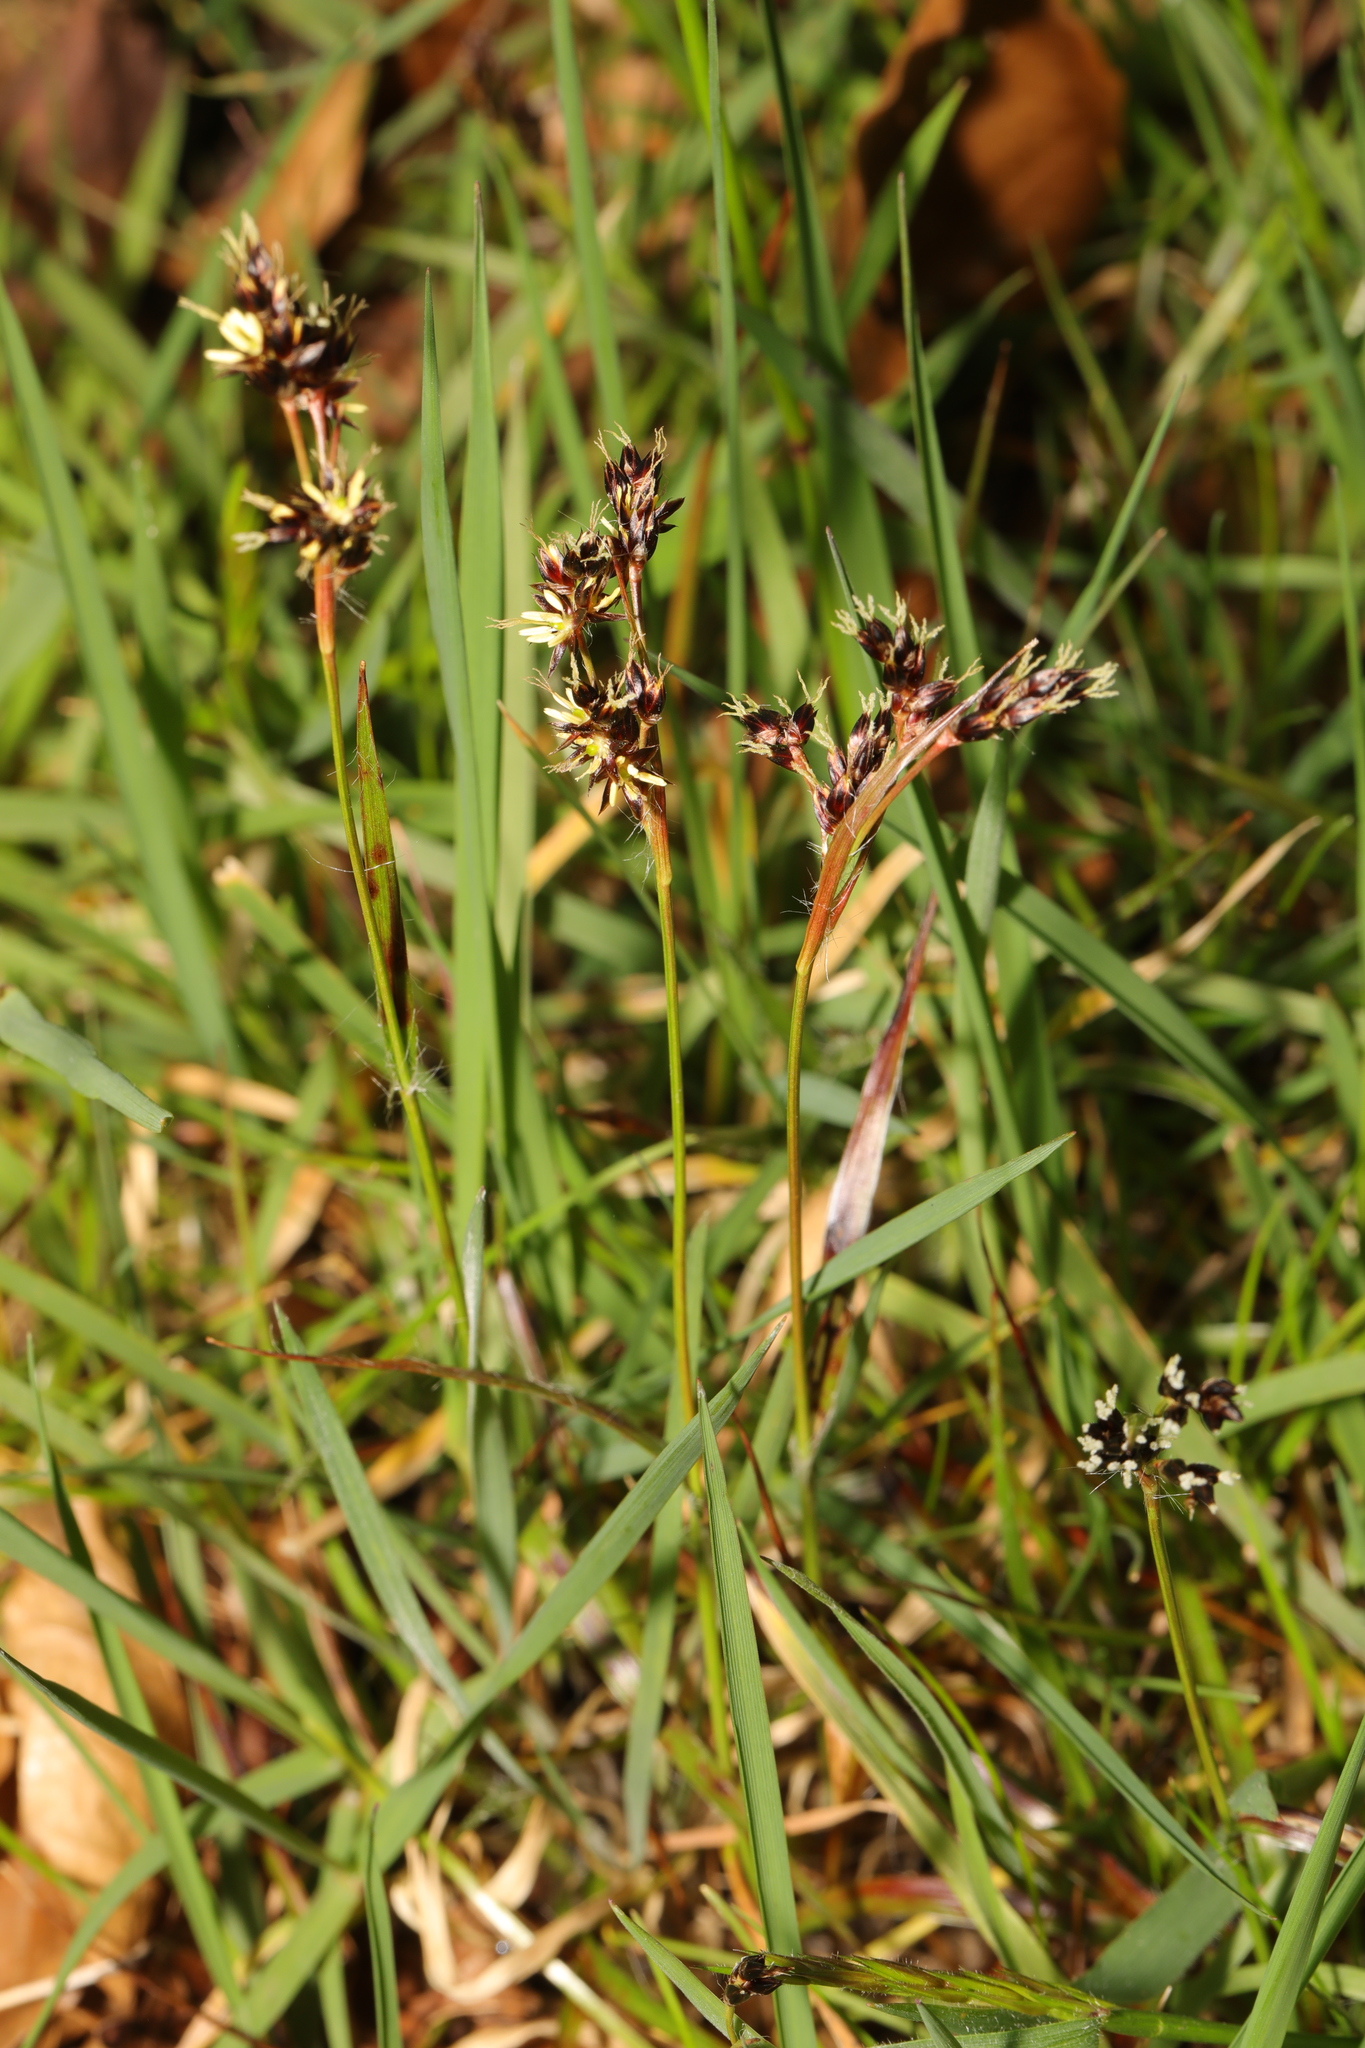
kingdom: Plantae
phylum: Tracheophyta
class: Liliopsida
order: Poales
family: Juncaceae
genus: Luzula
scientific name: Luzula campestris
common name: Field wood-rush
